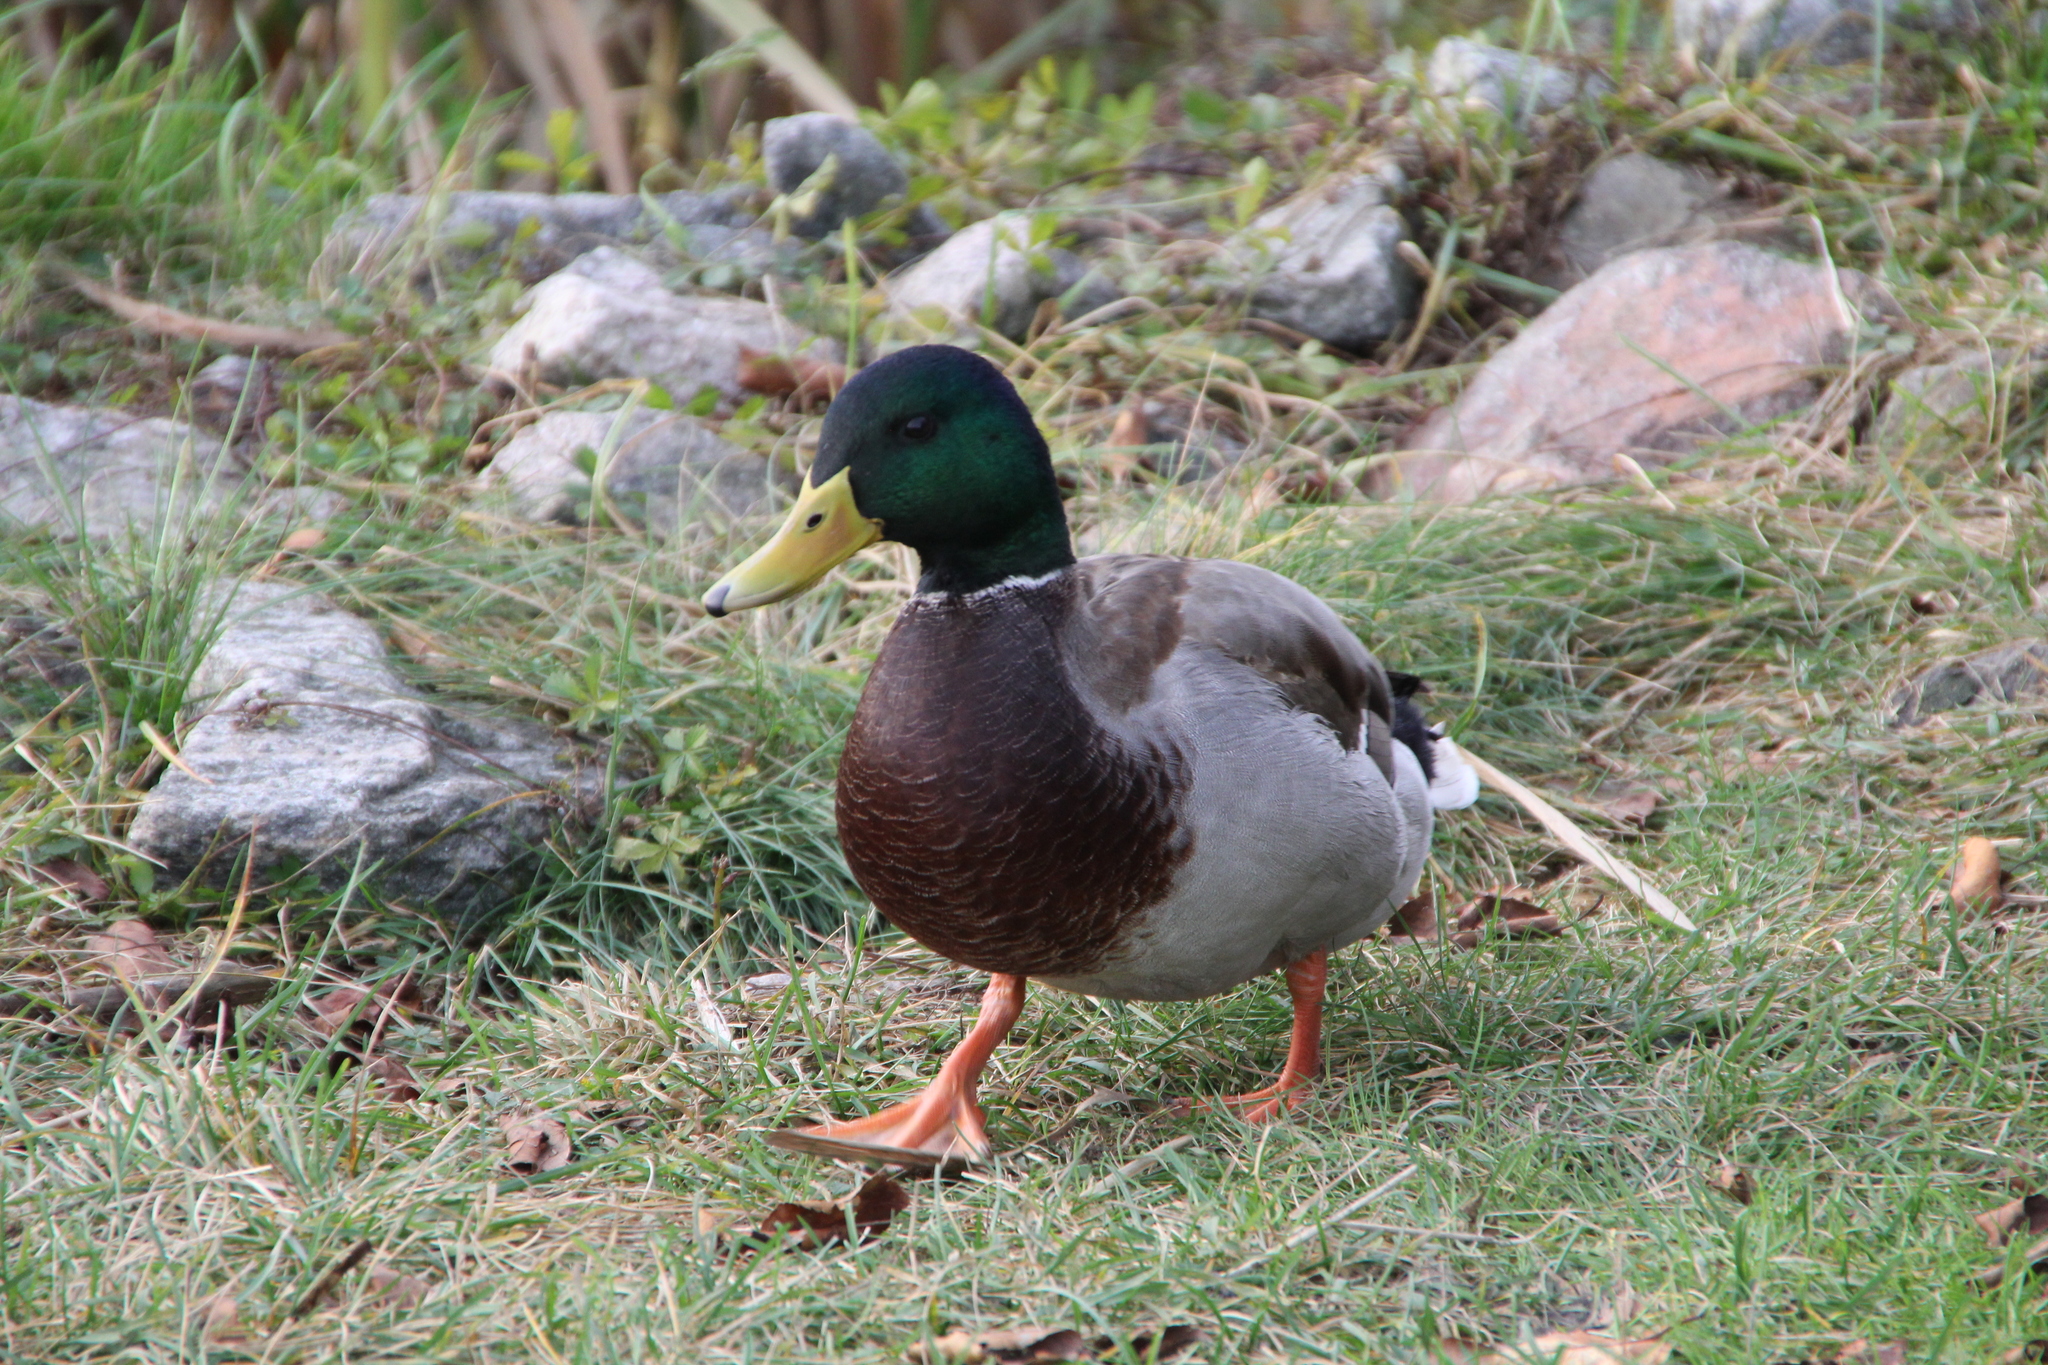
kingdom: Animalia
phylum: Chordata
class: Aves
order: Anseriformes
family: Anatidae
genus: Anas
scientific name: Anas platyrhynchos
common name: Mallard
